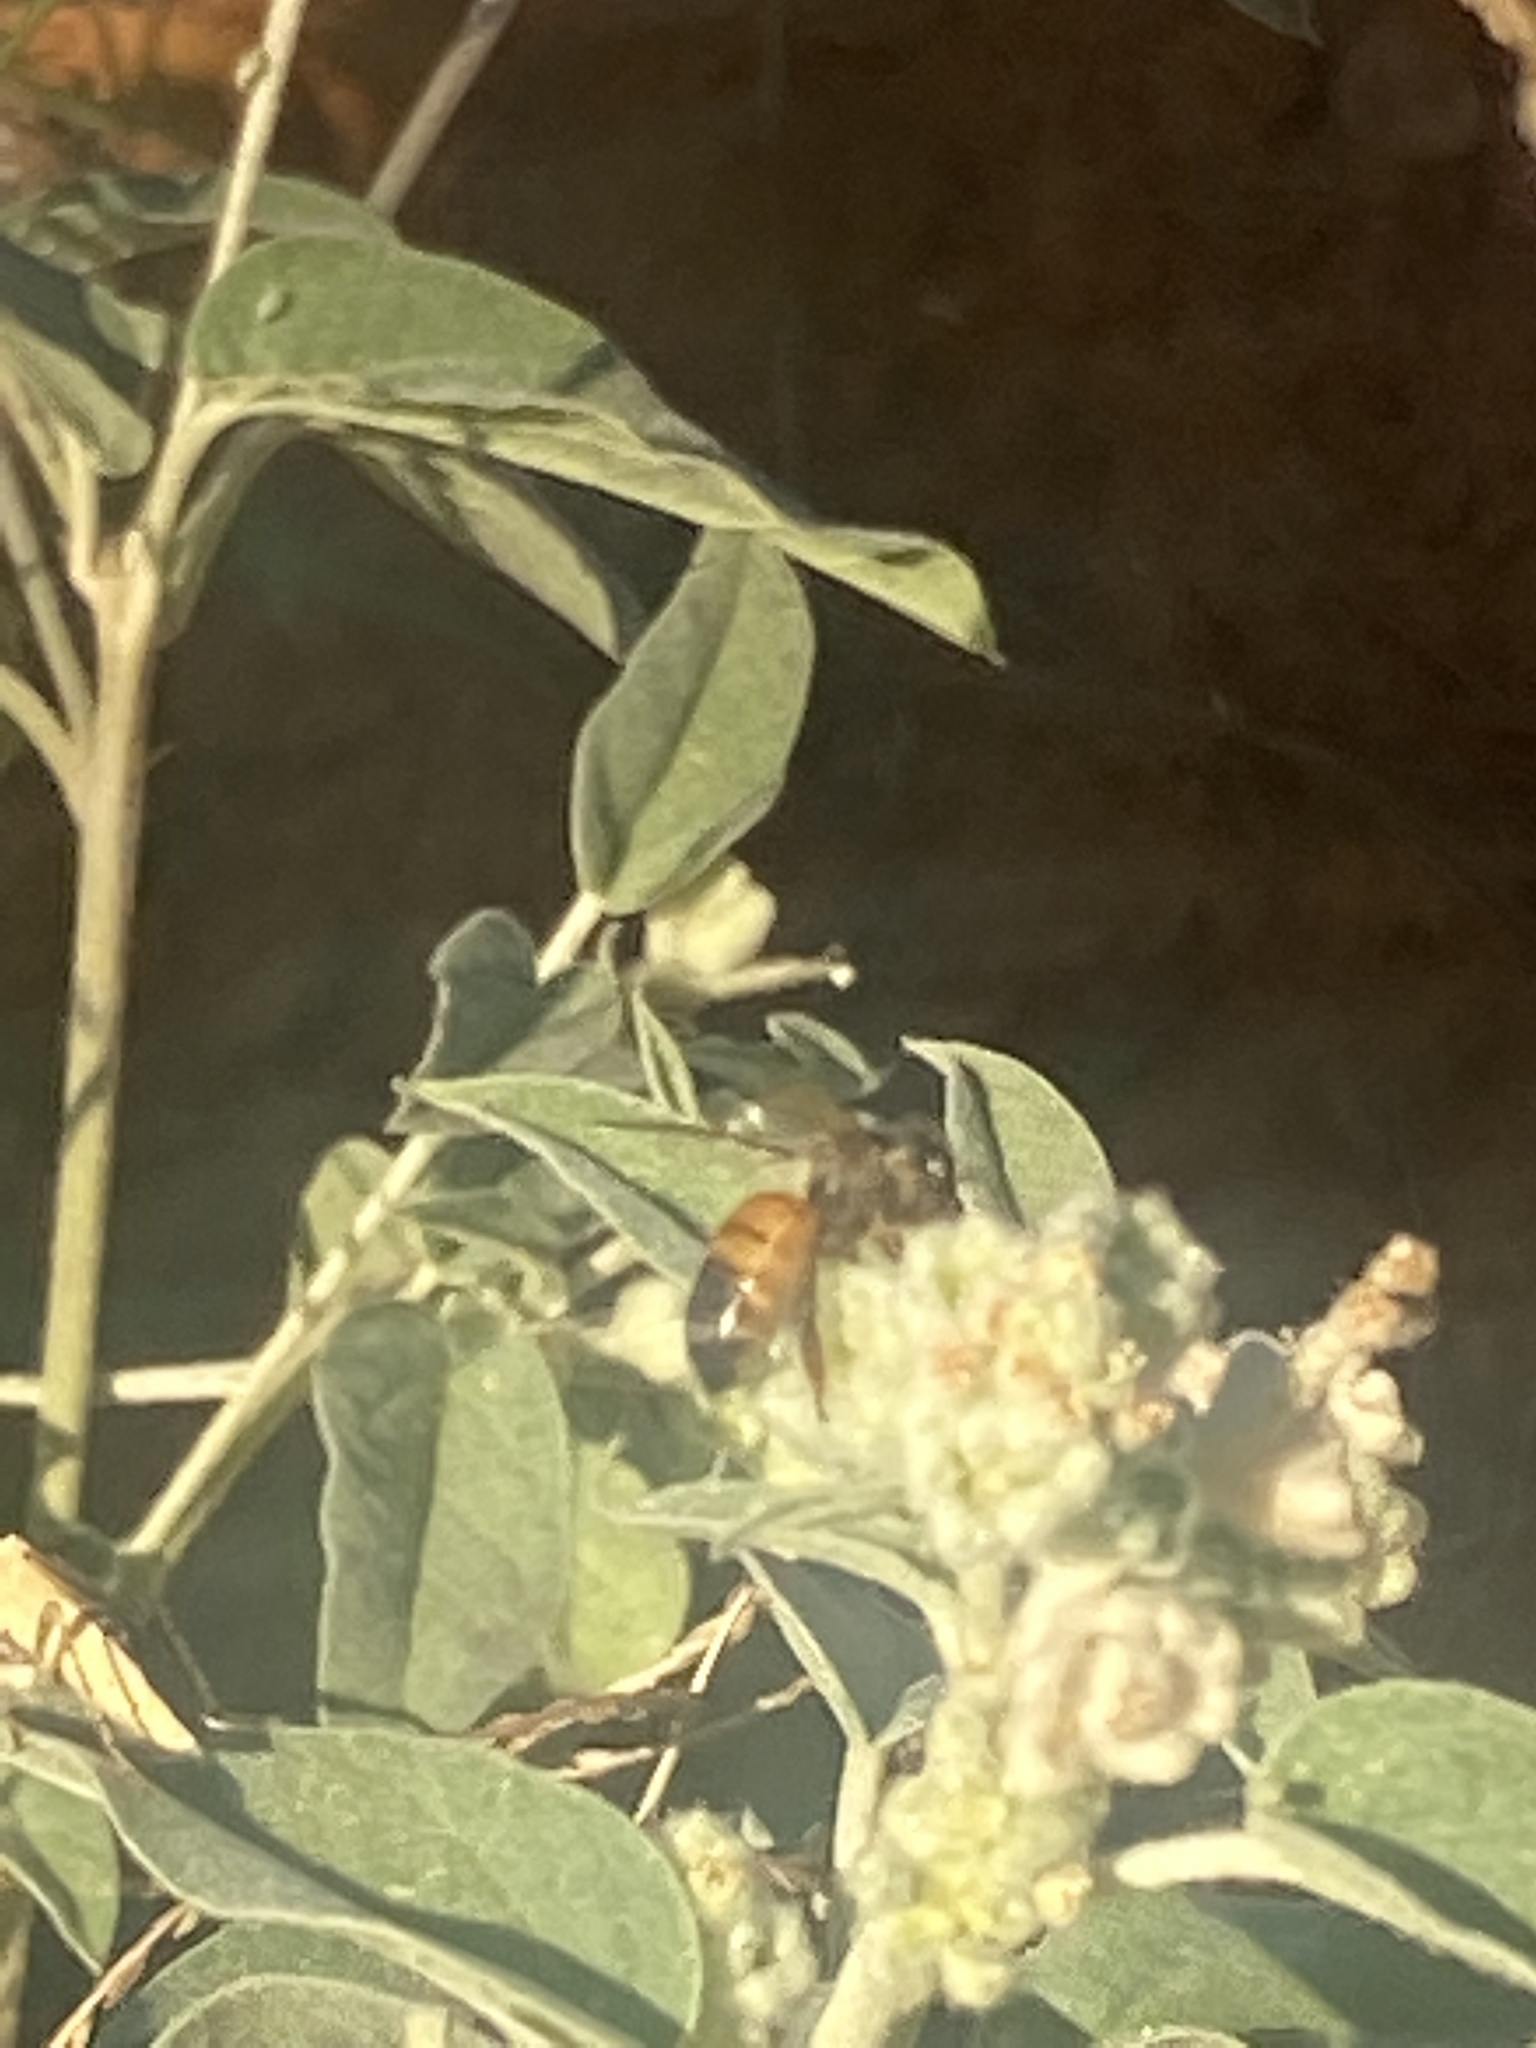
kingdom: Animalia
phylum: Arthropoda
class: Insecta
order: Hymenoptera
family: Apidae
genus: Apis
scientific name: Apis mellifera
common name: Honey bee
